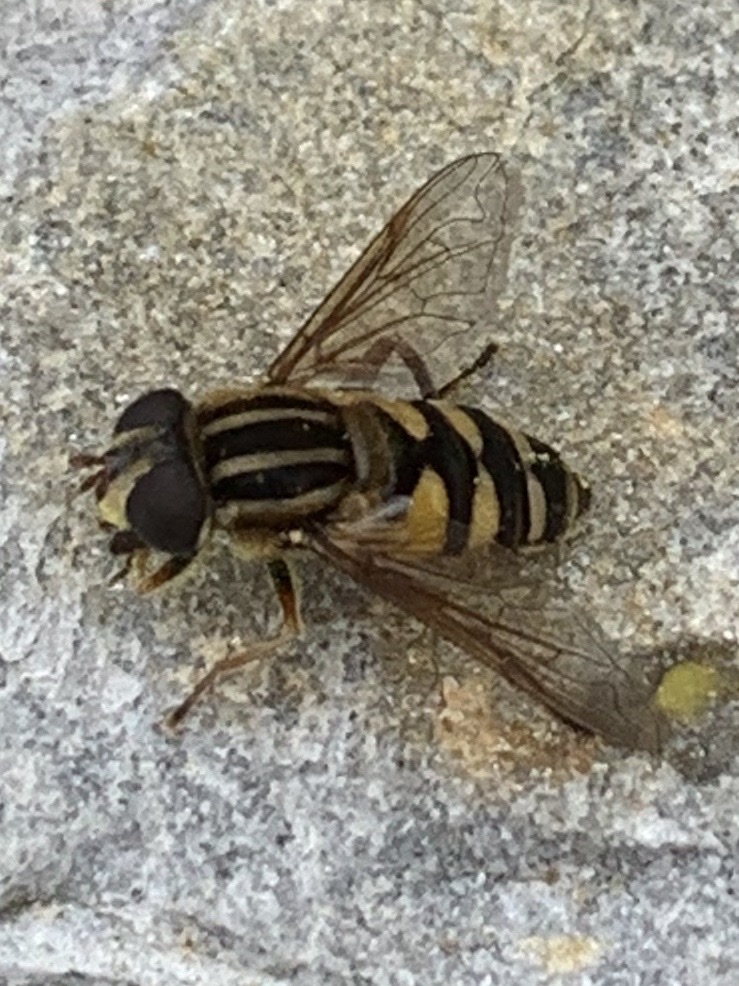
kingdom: Animalia
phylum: Arthropoda
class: Insecta
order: Diptera
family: Syrphidae
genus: Helophilus
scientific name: Helophilus fasciatus
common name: Narrow-headed marsh fly
